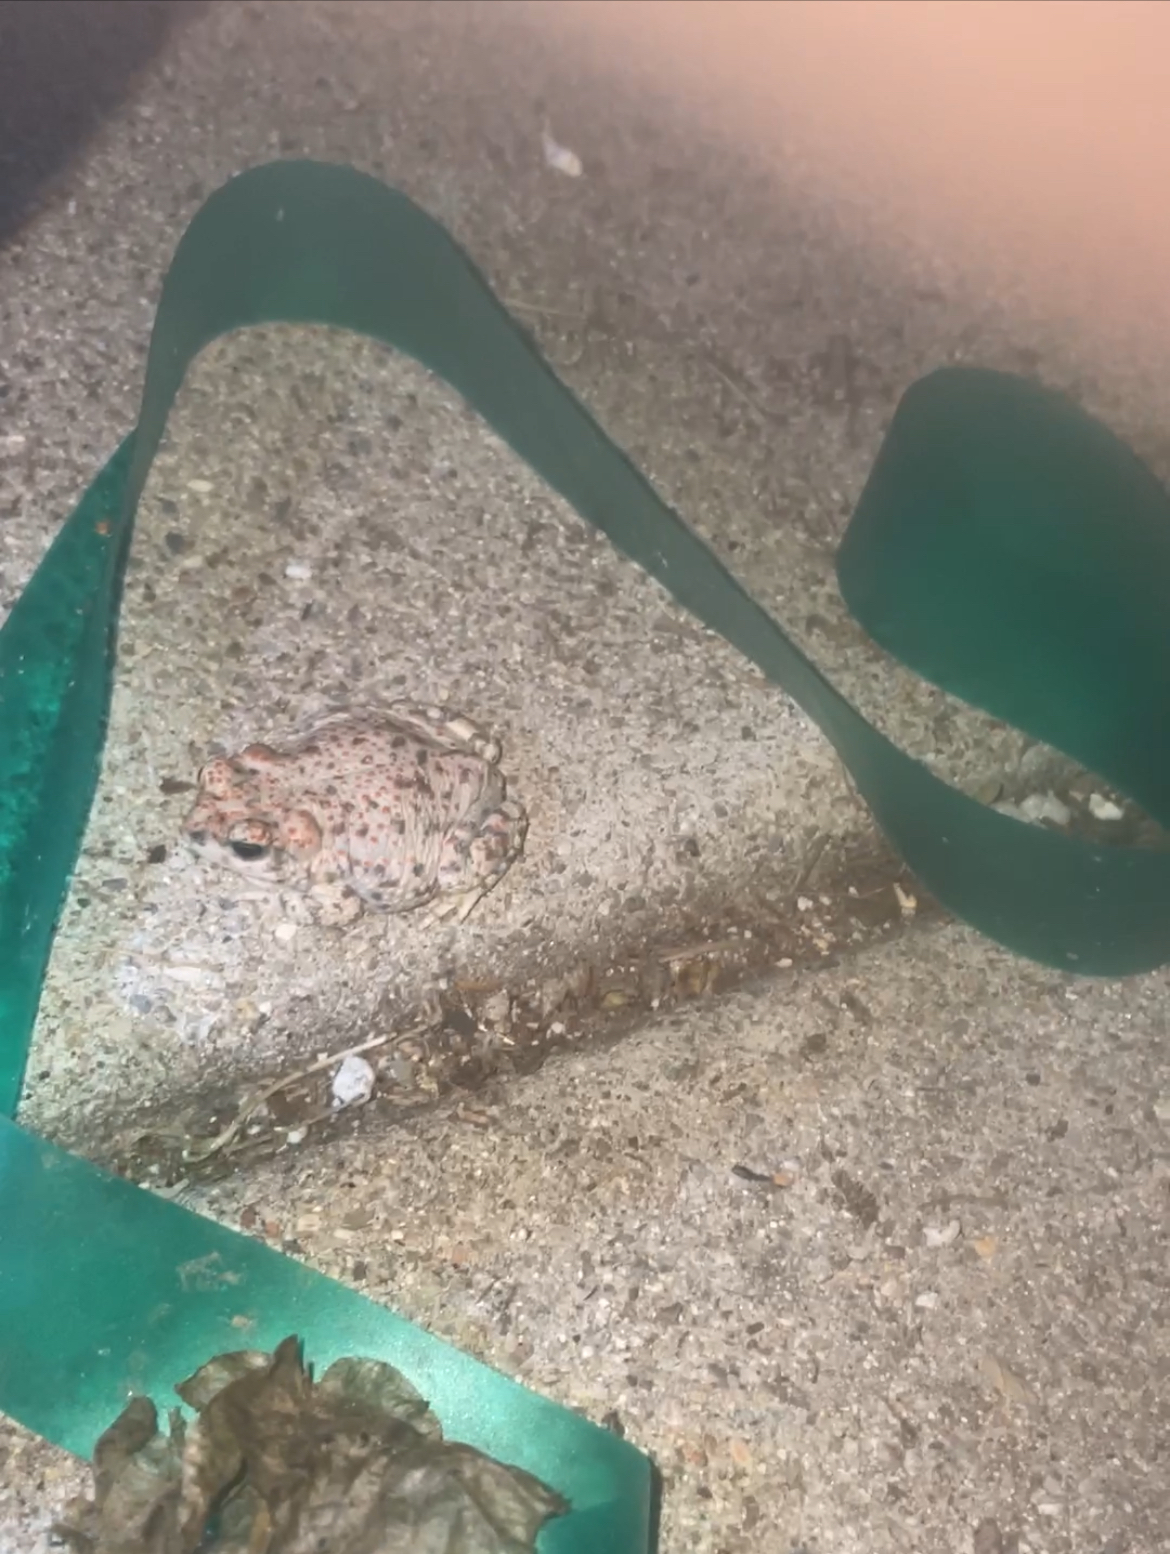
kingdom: Animalia
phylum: Chordata
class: Amphibia
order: Anura
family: Bufonidae
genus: Anaxyrus
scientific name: Anaxyrus punctatus
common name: Red-spotted toad
